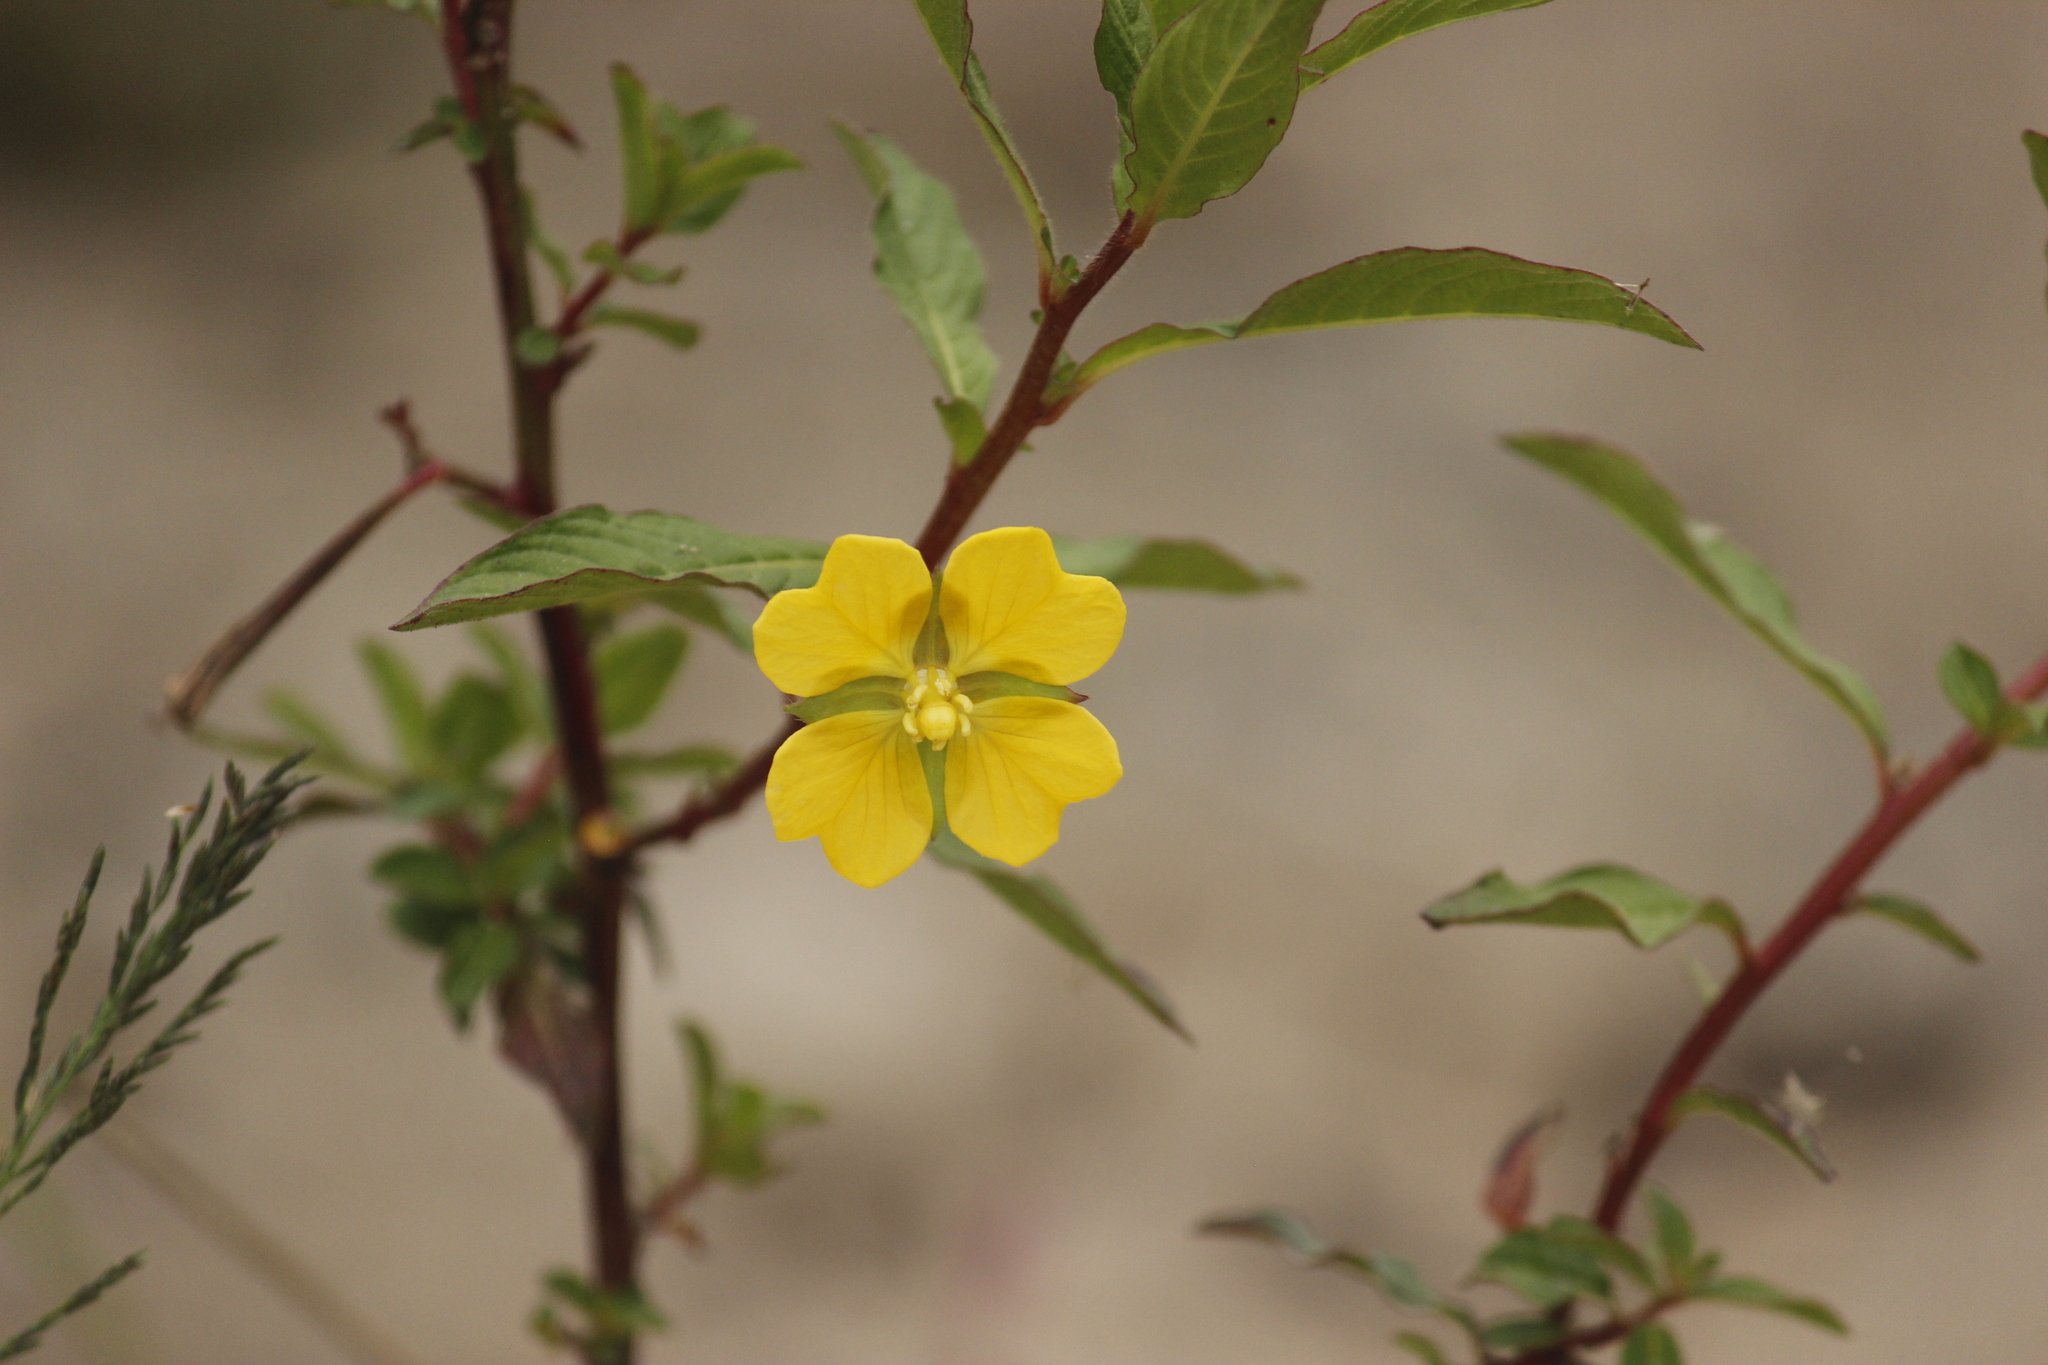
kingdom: Plantae
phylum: Tracheophyta
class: Magnoliopsida
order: Myrtales
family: Onagraceae
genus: Ludwigia
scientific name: Ludwigia octovalvis
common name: Water-primrose
